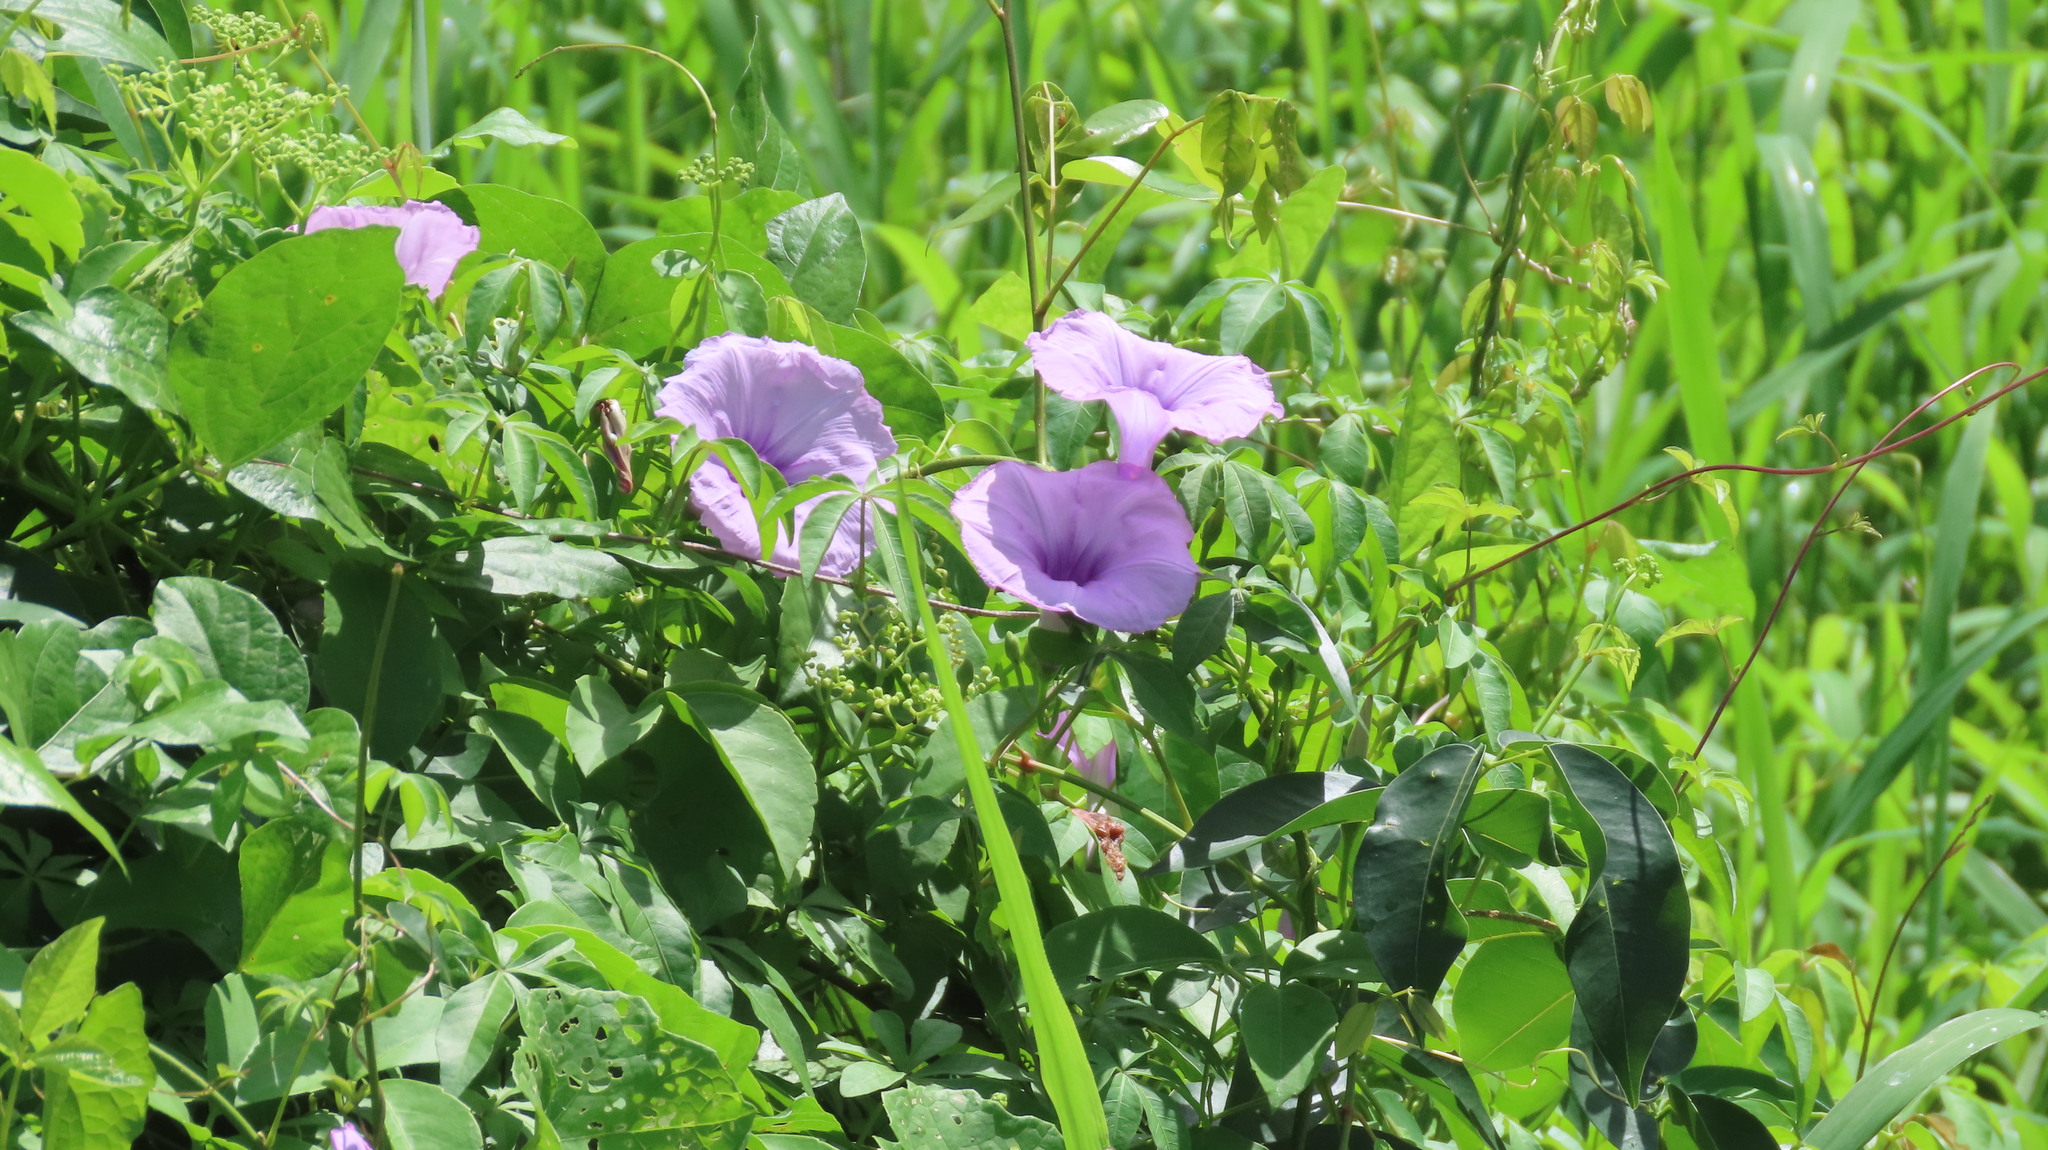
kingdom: Plantae
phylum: Tracheophyta
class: Magnoliopsida
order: Solanales
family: Convolvulaceae
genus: Ipomoea
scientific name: Ipomoea cairica
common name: Mile a minute vine
